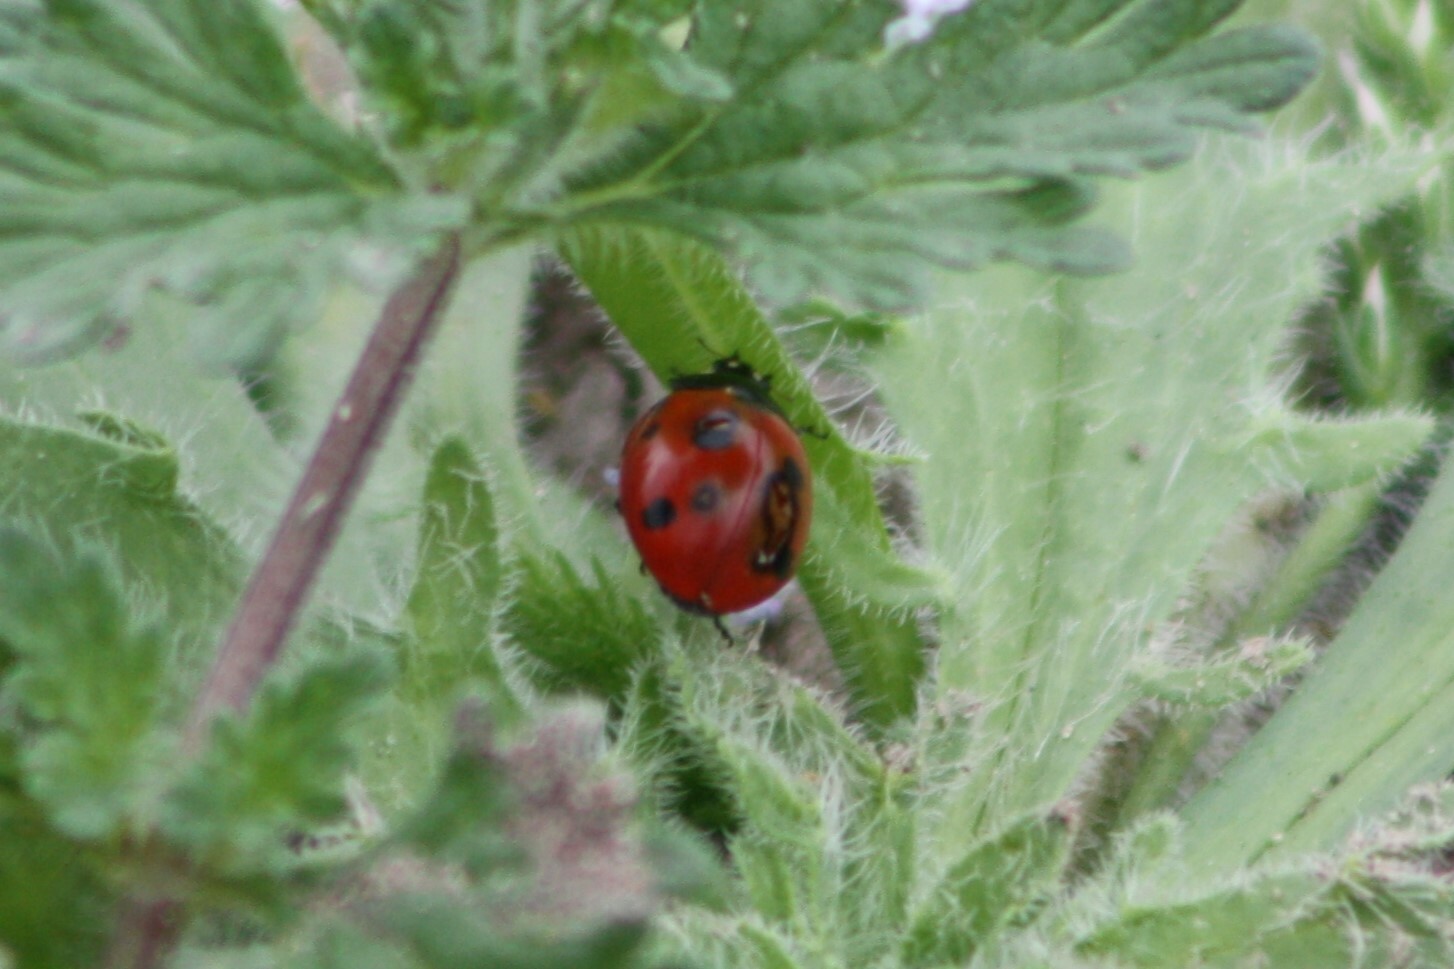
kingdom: Animalia
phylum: Arthropoda
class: Insecta
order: Coleoptera
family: Coccinellidae
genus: Coccinella
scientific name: Coccinella septempunctata
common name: Sevenspotted lady beetle
